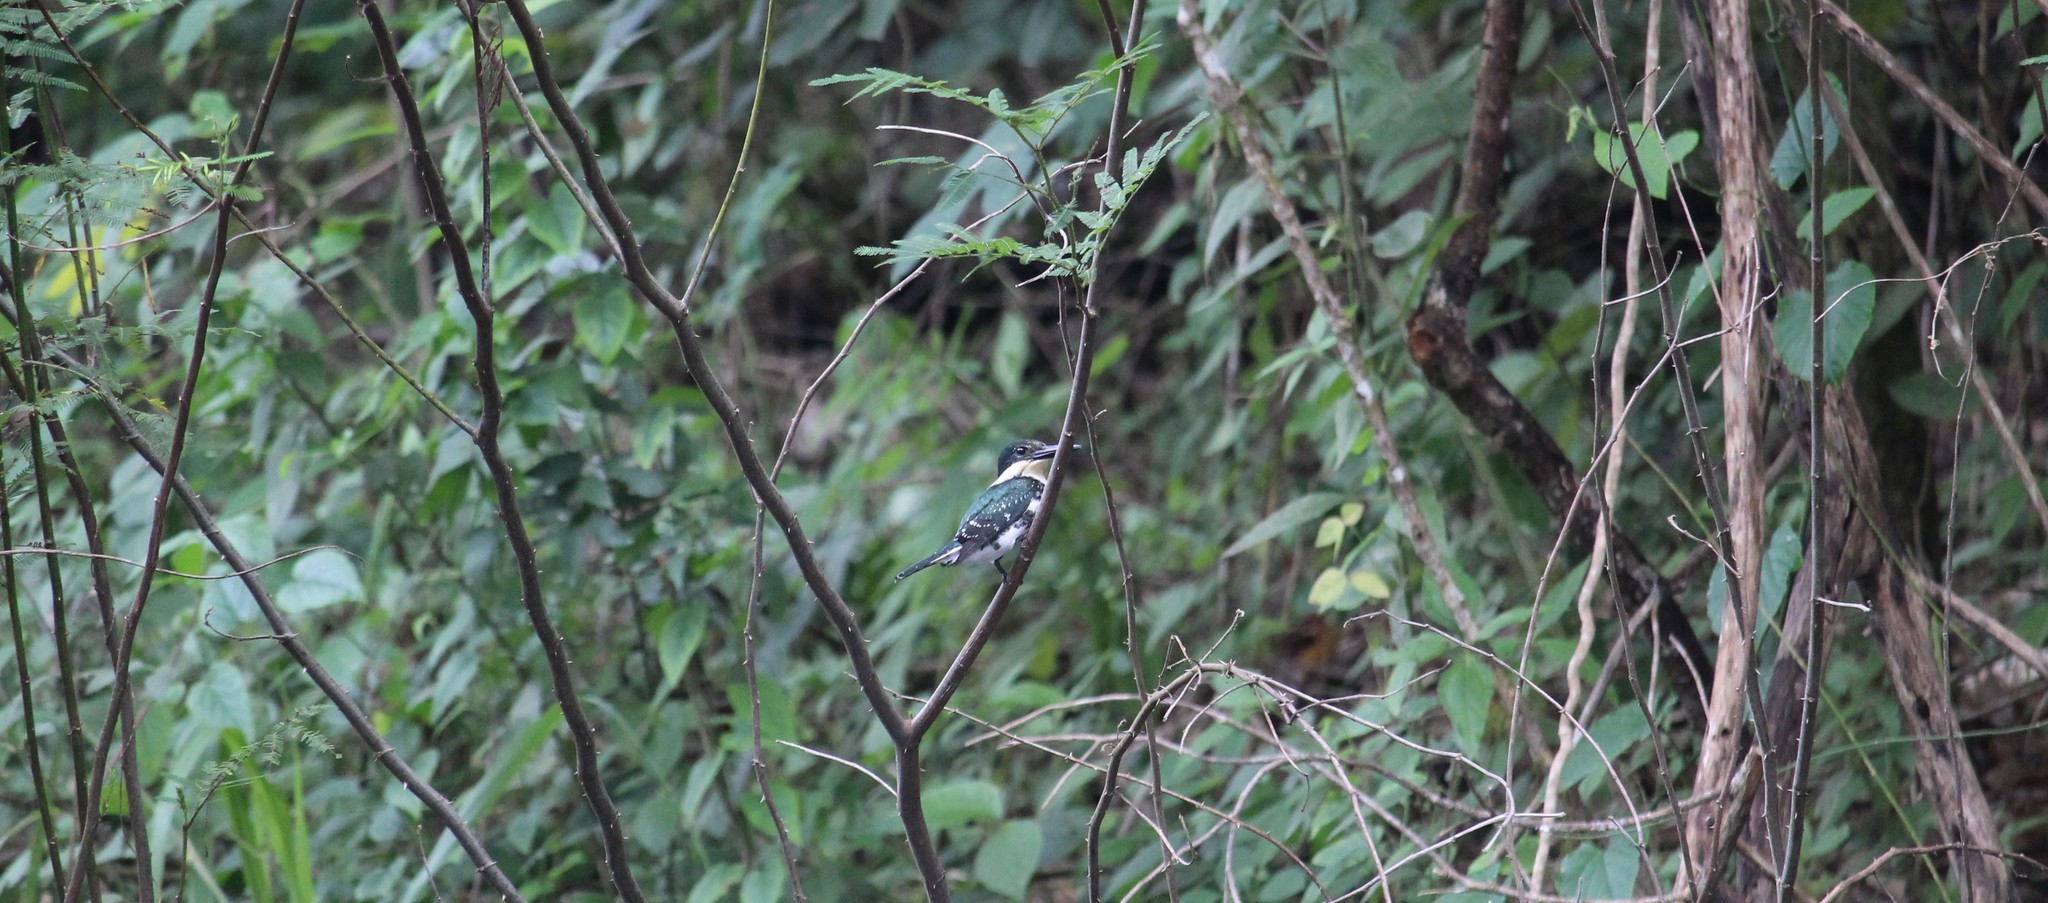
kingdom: Animalia
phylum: Chordata
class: Aves
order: Coraciiformes
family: Alcedinidae
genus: Chloroceryle
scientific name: Chloroceryle americana
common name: Green kingfisher
